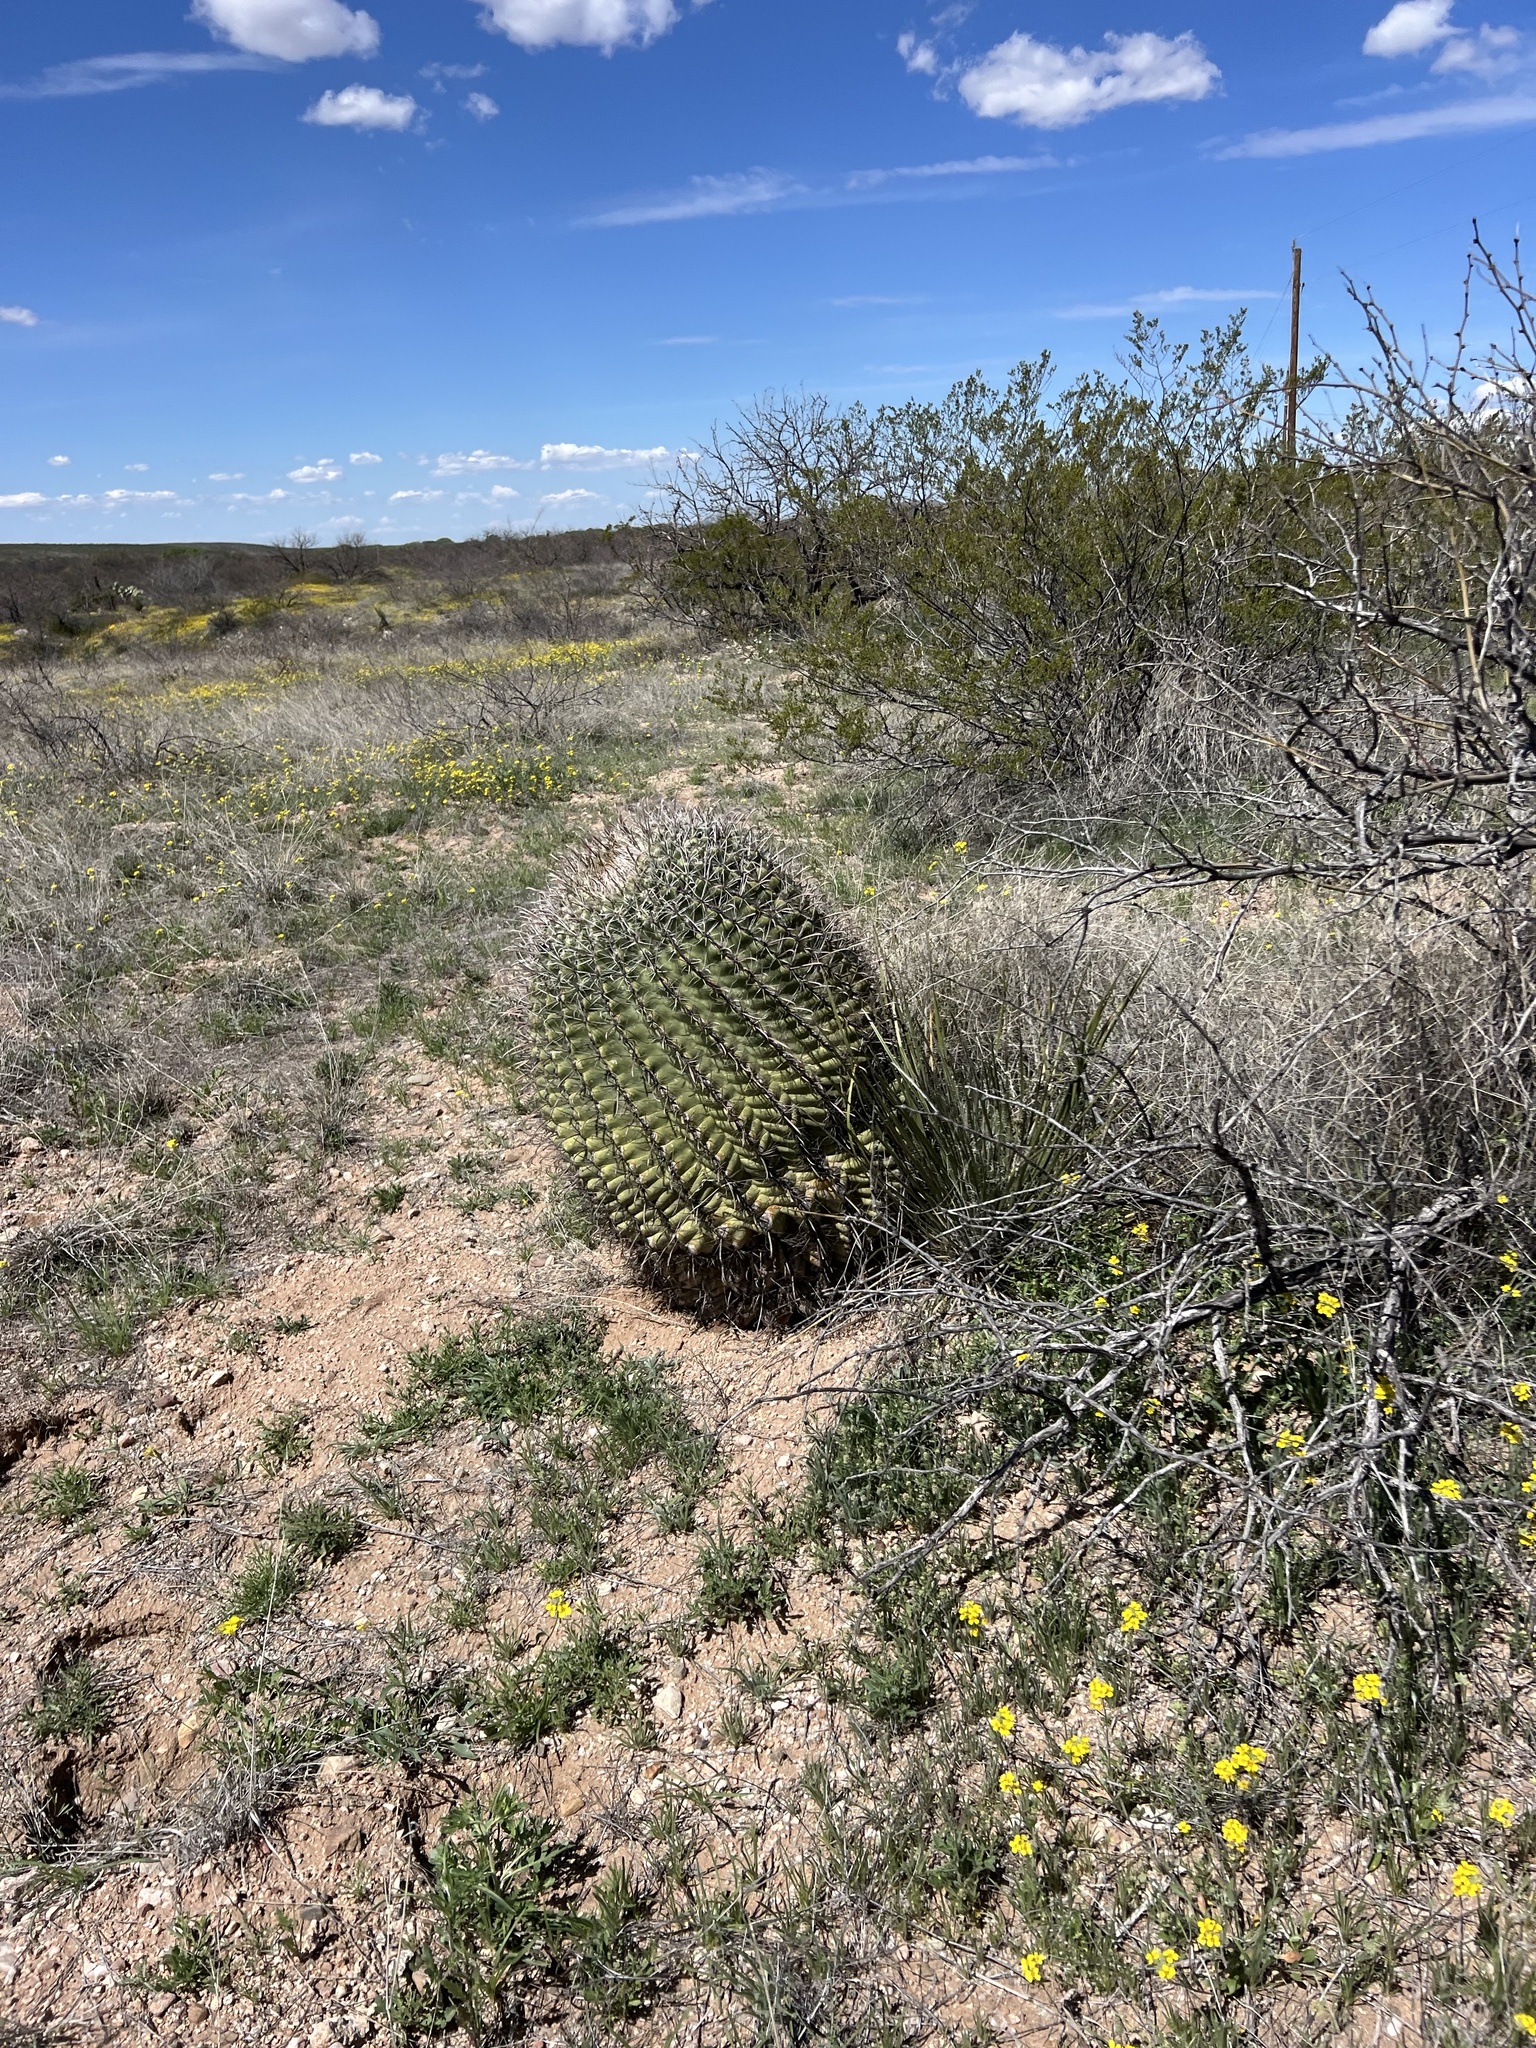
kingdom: Plantae
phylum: Tracheophyta
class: Magnoliopsida
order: Caryophyllales
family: Cactaceae
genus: Ferocactus
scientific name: Ferocactus wislizeni
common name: Candy barrel cactus
